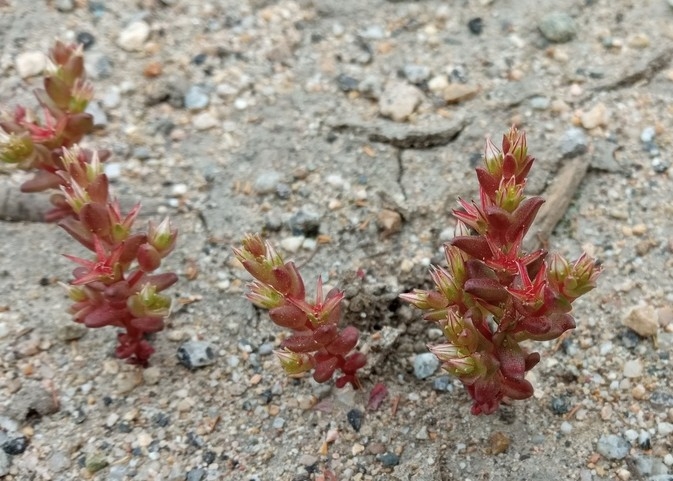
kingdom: Plantae
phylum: Tracheophyta
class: Magnoliopsida
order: Saxifragales
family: Crassulaceae
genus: Sedum
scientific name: Sedum cespitosum
